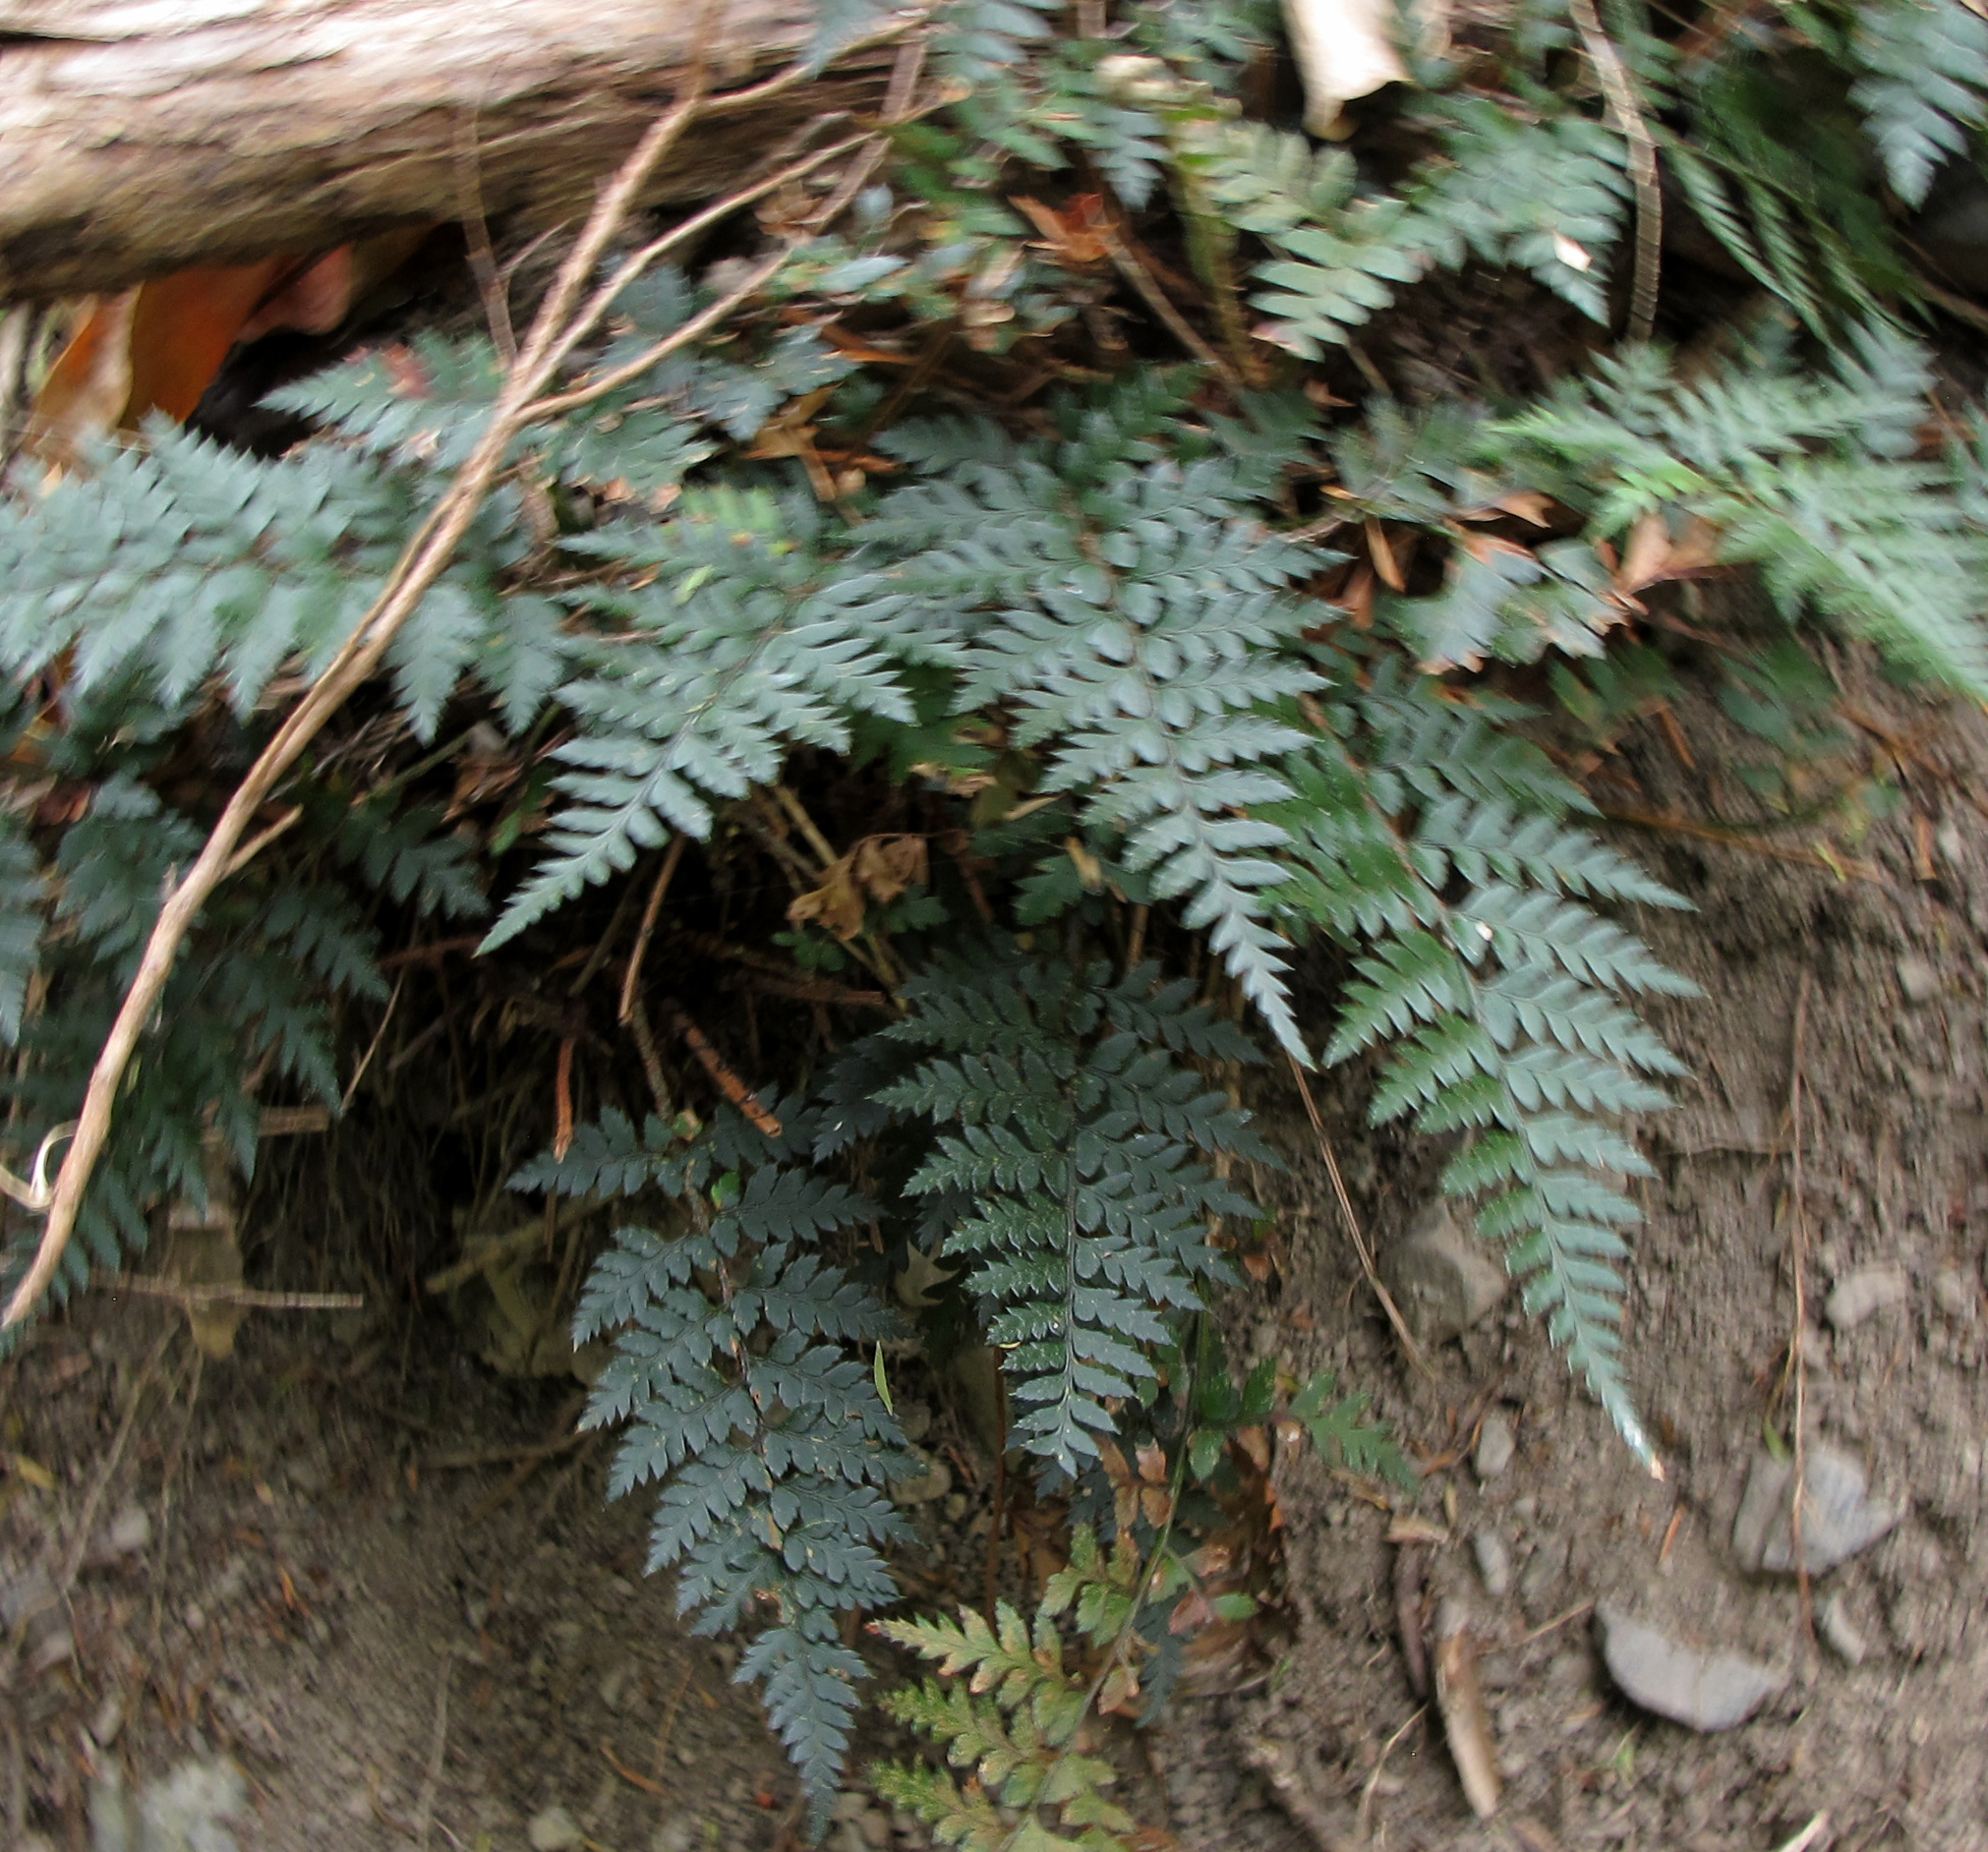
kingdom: Plantae
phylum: Tracheophyta
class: Polypodiopsida
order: Polypodiales
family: Dryopteridaceae
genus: Polystichum
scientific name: Polystichum oculatum
